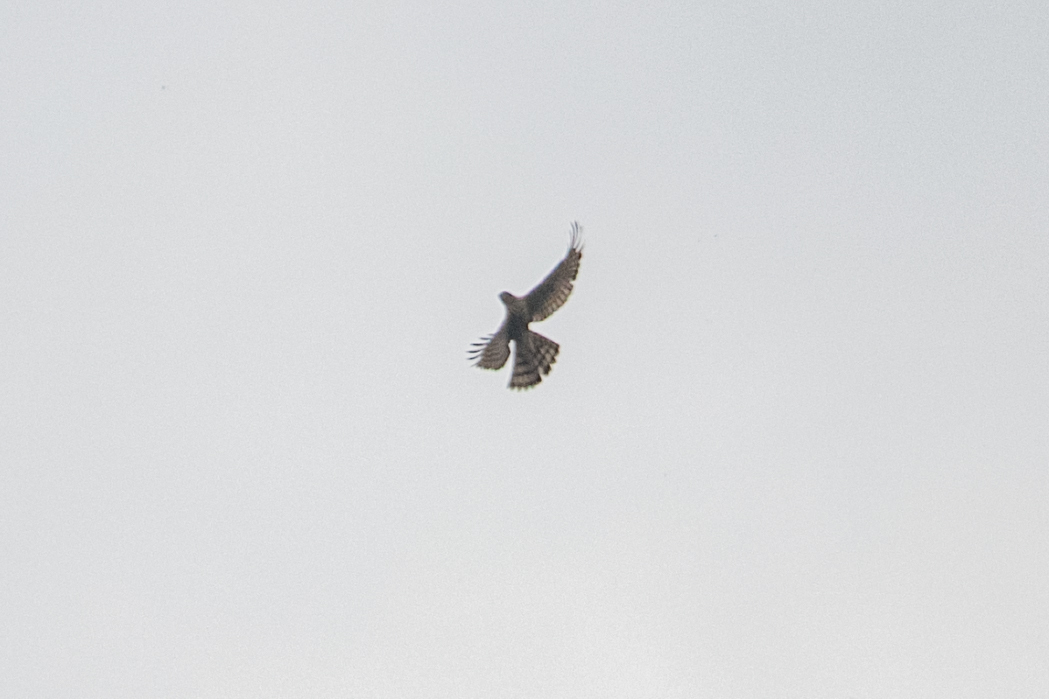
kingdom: Animalia
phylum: Chordata
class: Aves
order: Accipitriformes
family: Accipitridae
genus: Accipiter
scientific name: Accipiter nisus
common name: Eurasian sparrowhawk
